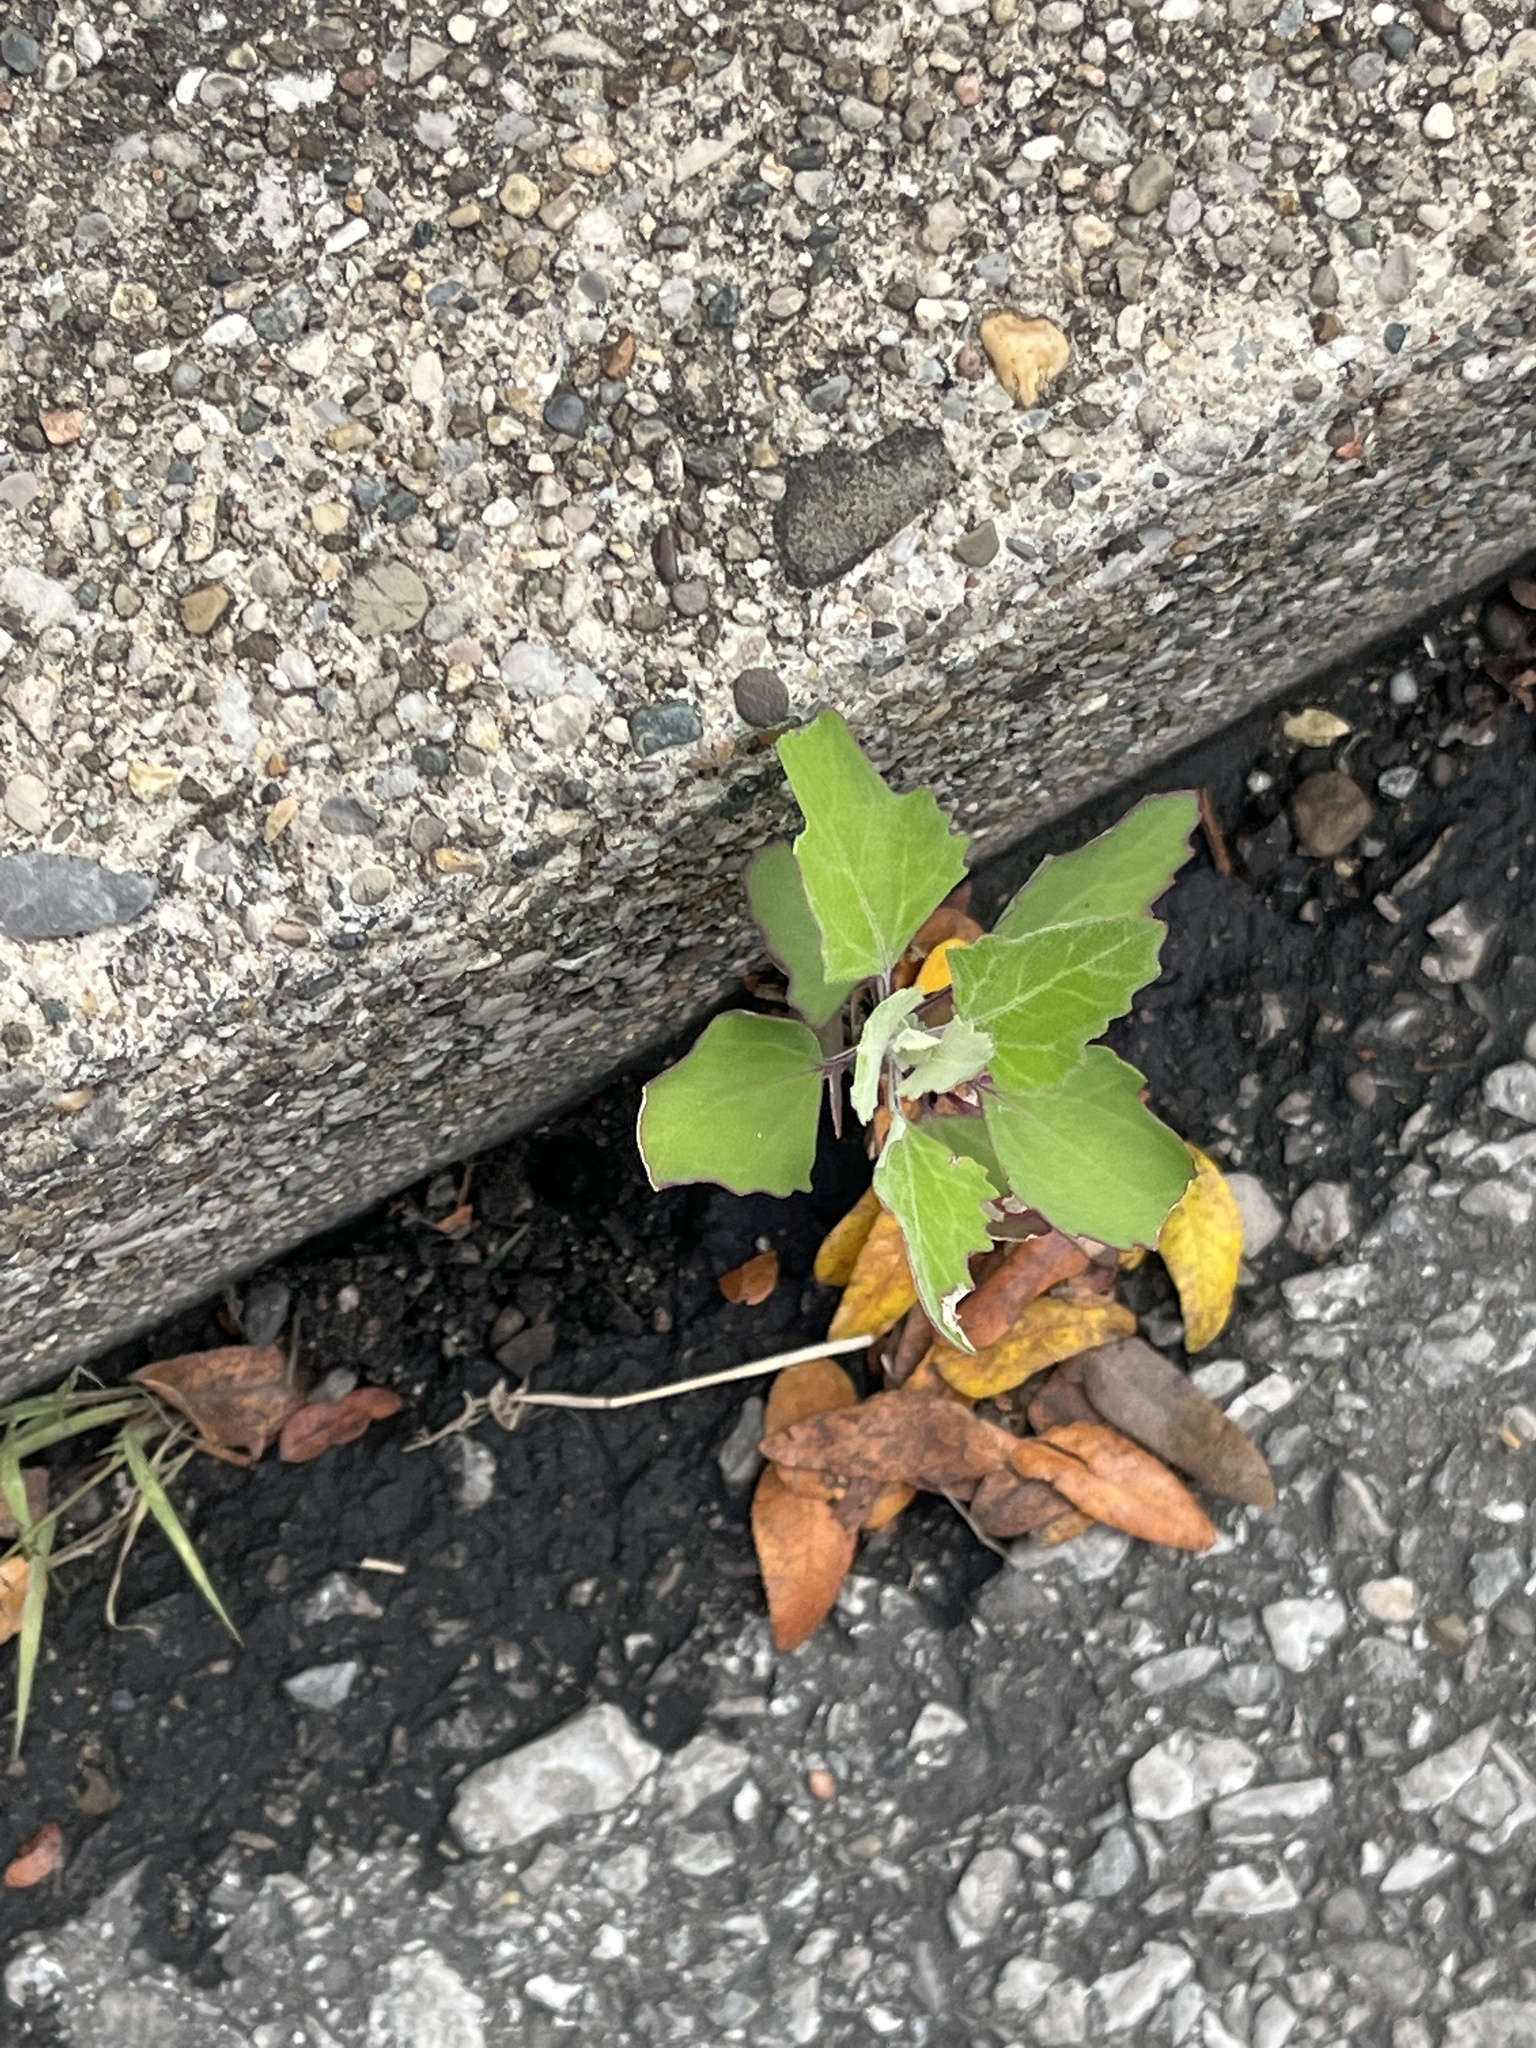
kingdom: Plantae
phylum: Tracheophyta
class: Magnoliopsida
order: Caryophyllales
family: Amaranthaceae
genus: Chenopodium
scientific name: Chenopodium album
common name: Fat-hen
